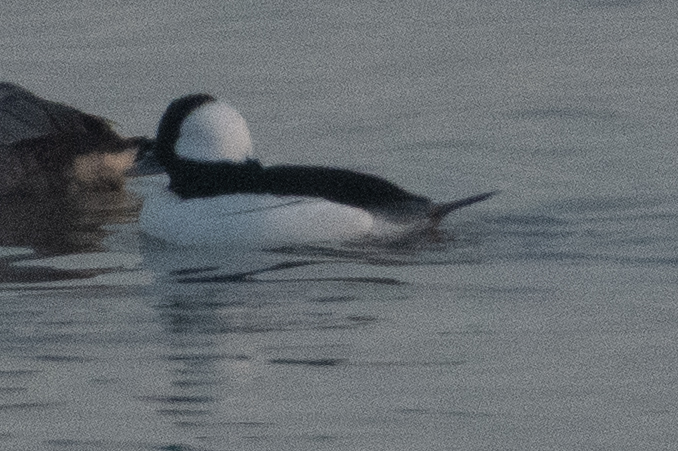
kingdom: Animalia
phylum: Chordata
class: Aves
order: Anseriformes
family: Anatidae
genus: Bucephala
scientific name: Bucephala albeola
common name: Bufflehead
